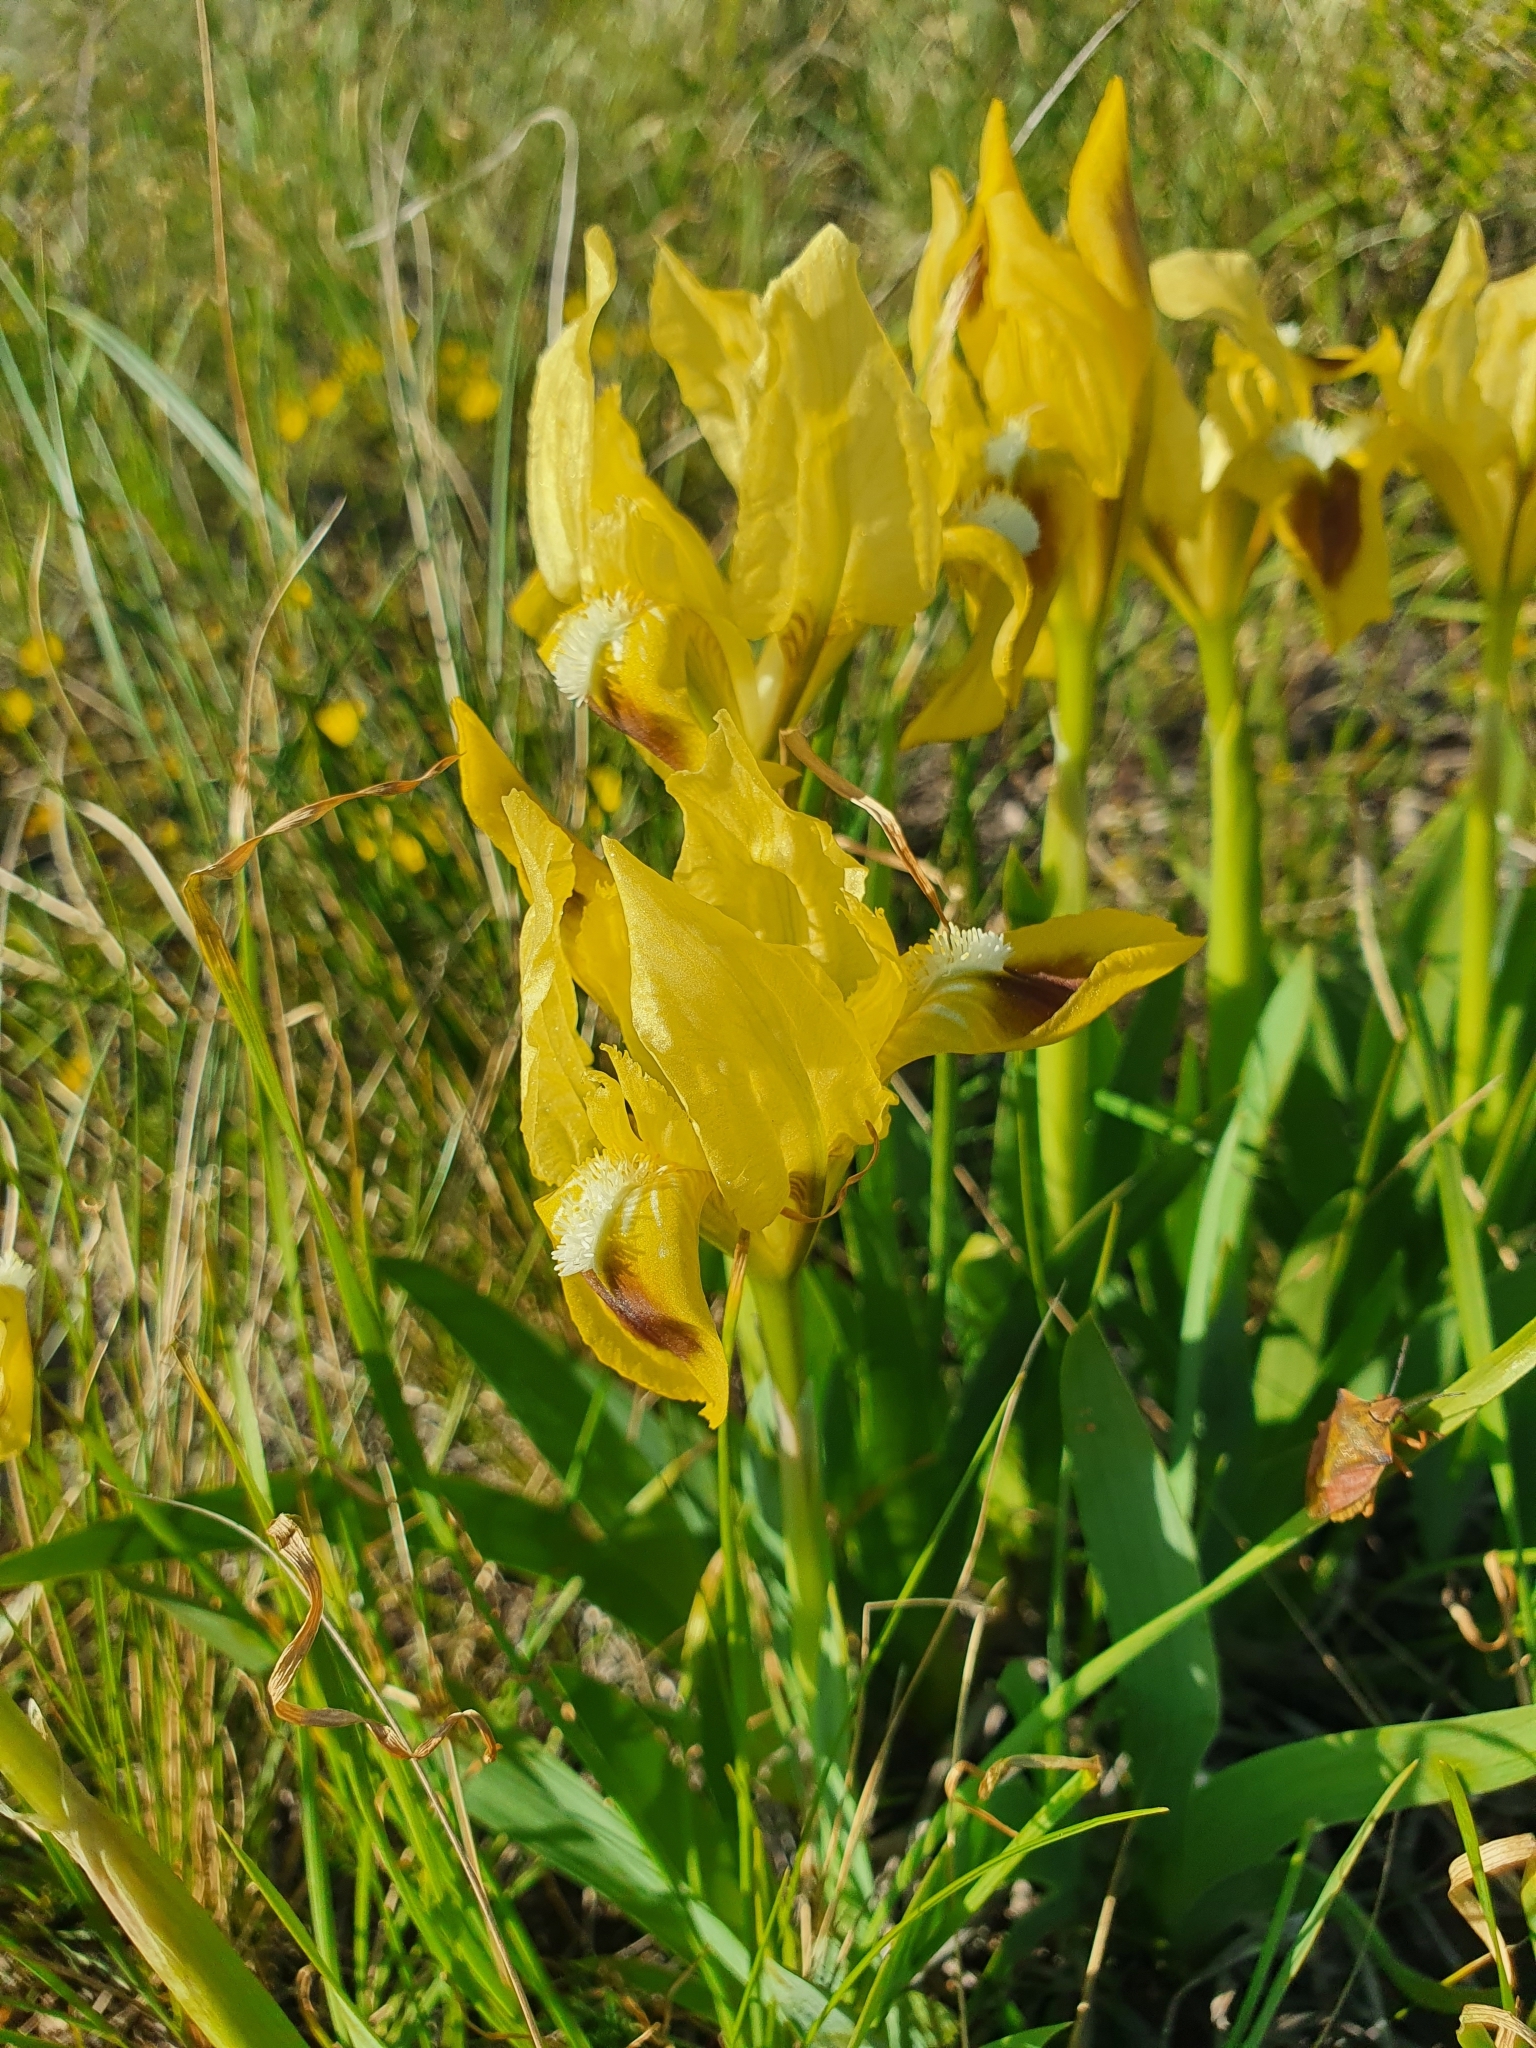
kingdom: Plantae
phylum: Tracheophyta
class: Liliopsida
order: Asparagales
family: Iridaceae
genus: Iris
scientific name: Iris pumila
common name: Dwarf iris
